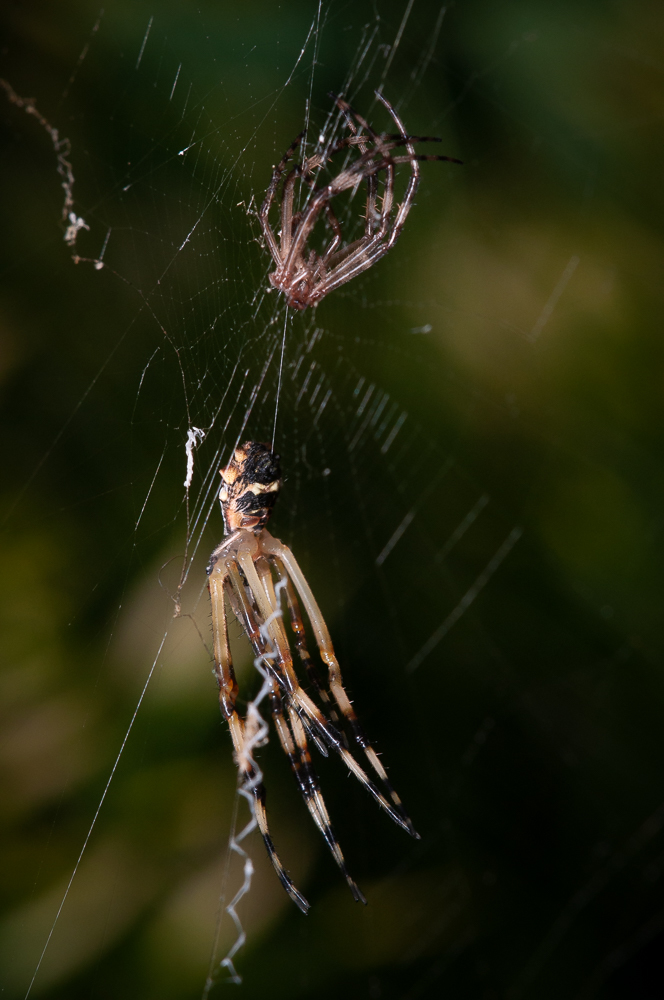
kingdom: Animalia
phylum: Arthropoda
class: Arachnida
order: Araneae
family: Araneidae
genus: Argiope
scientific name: Argiope argentata
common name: Orb weavers
